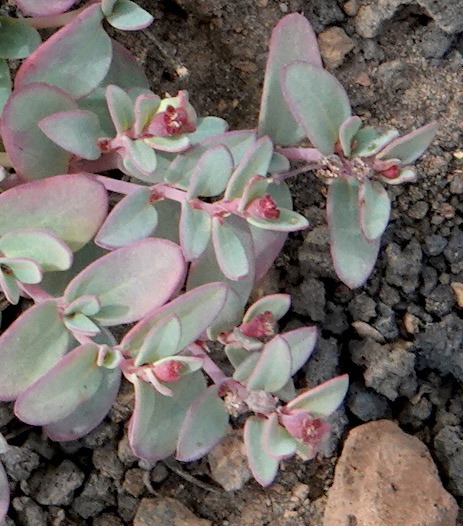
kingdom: Plantae
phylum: Tracheophyta
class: Magnoliopsida
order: Malpighiales
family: Euphorbiaceae
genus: Euphorbia
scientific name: Euphorbia fendleri
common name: Fendler's euphorbia
